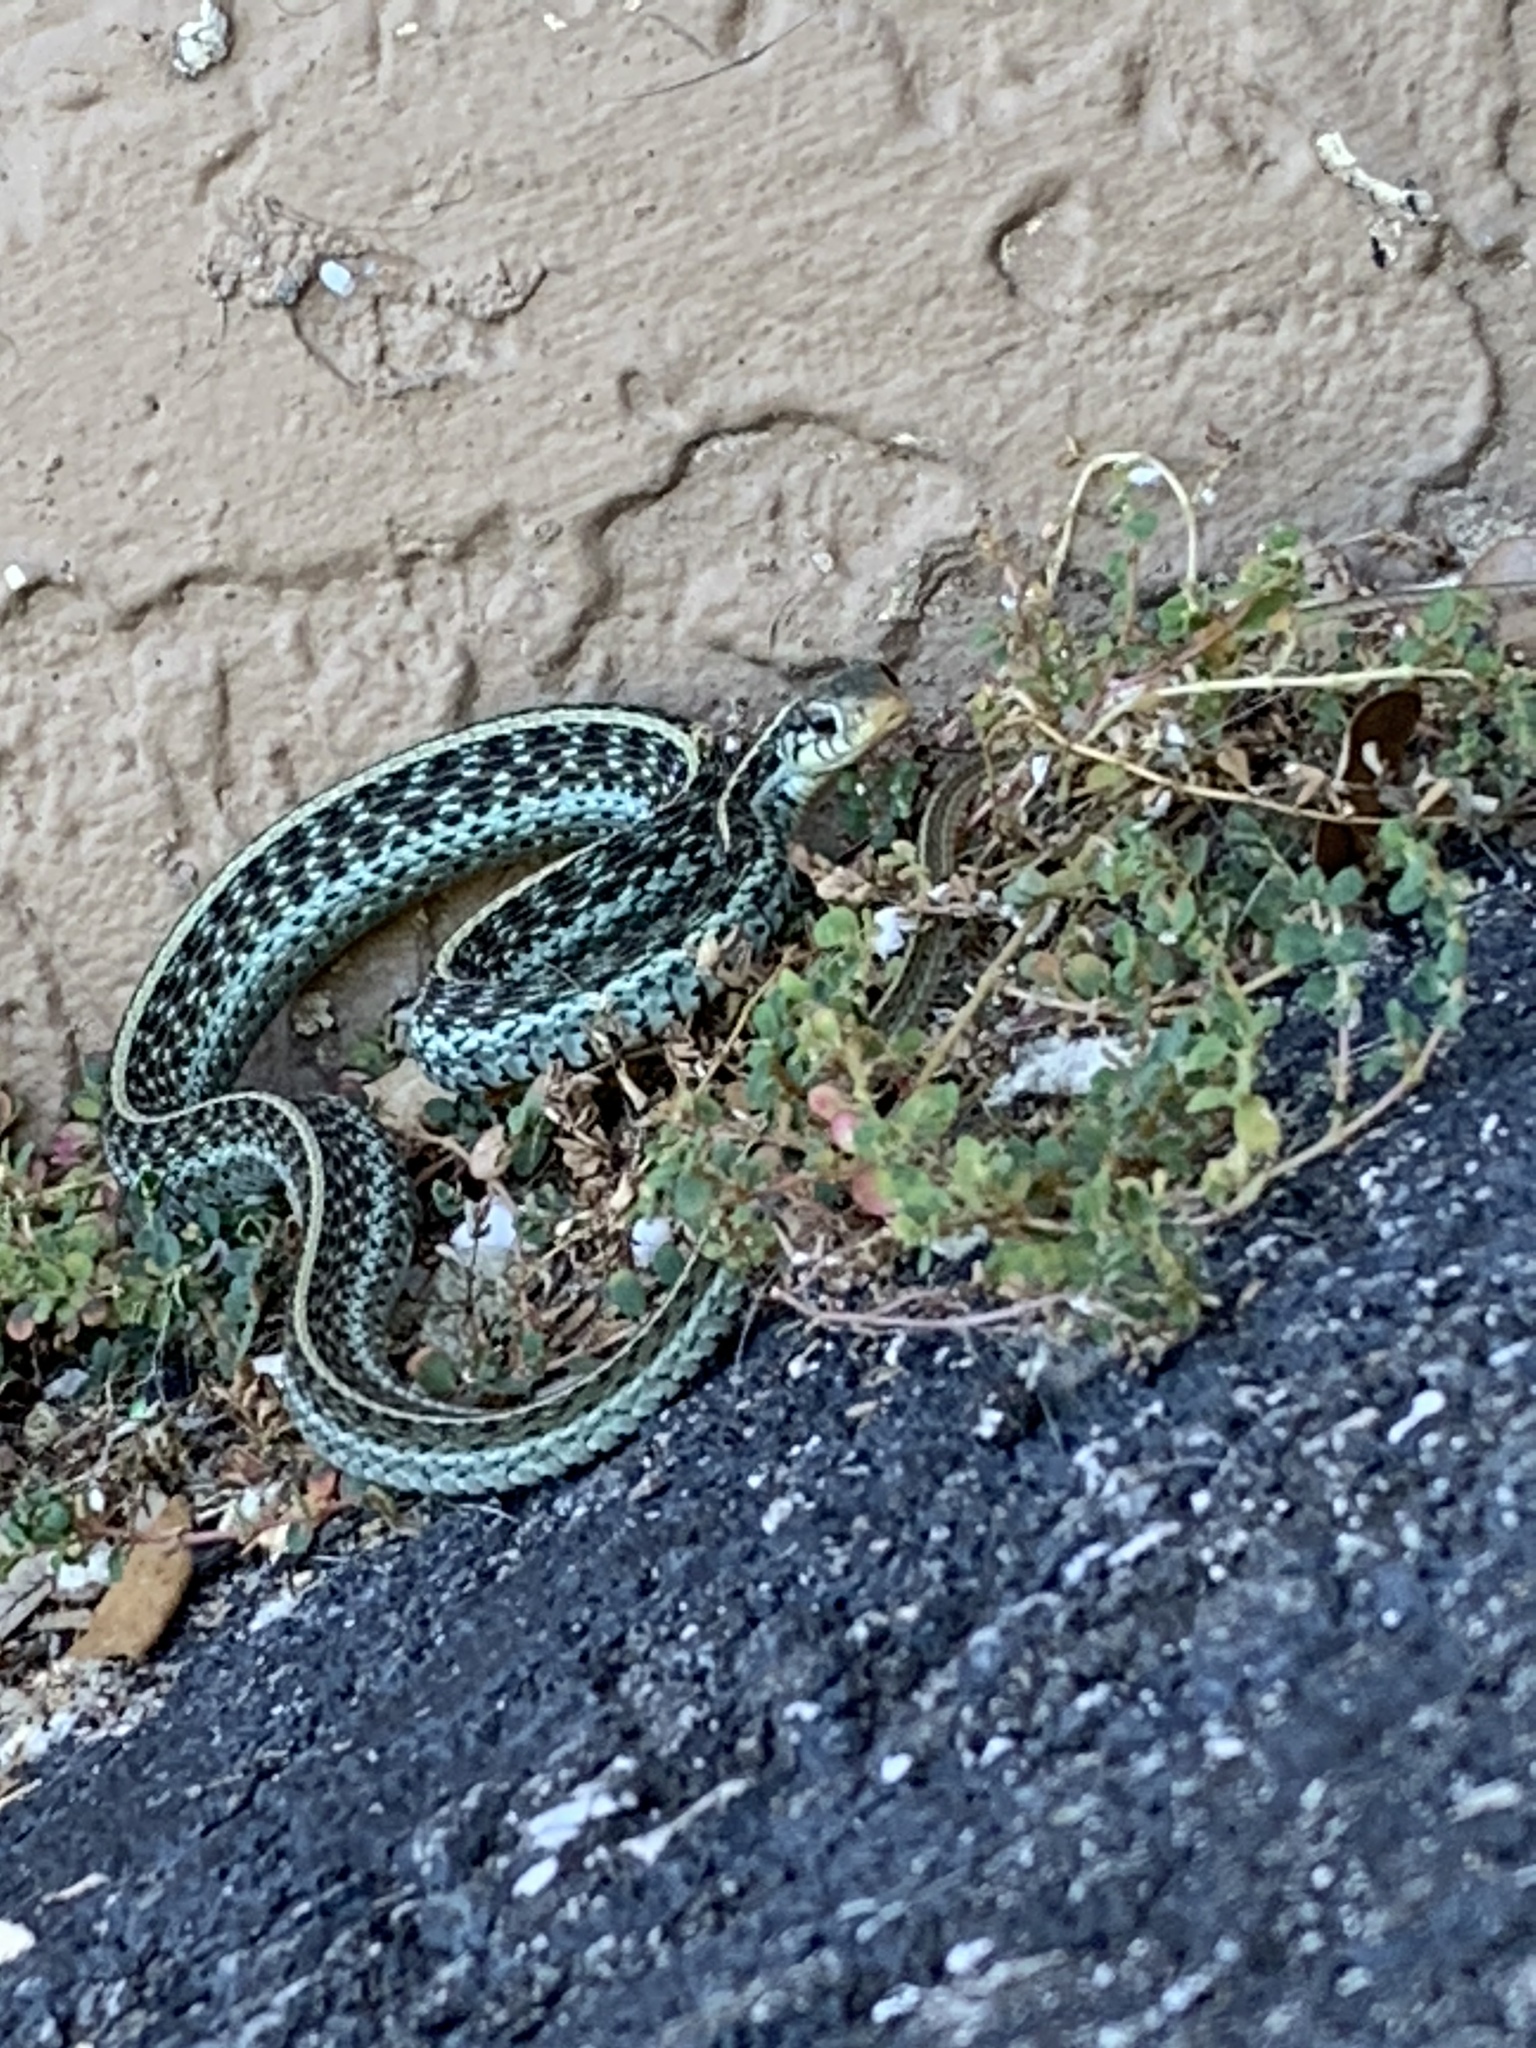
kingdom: Animalia
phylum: Chordata
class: Squamata
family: Colubridae
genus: Thamnophis
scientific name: Thamnophis sirtalis
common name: Common garter snake
